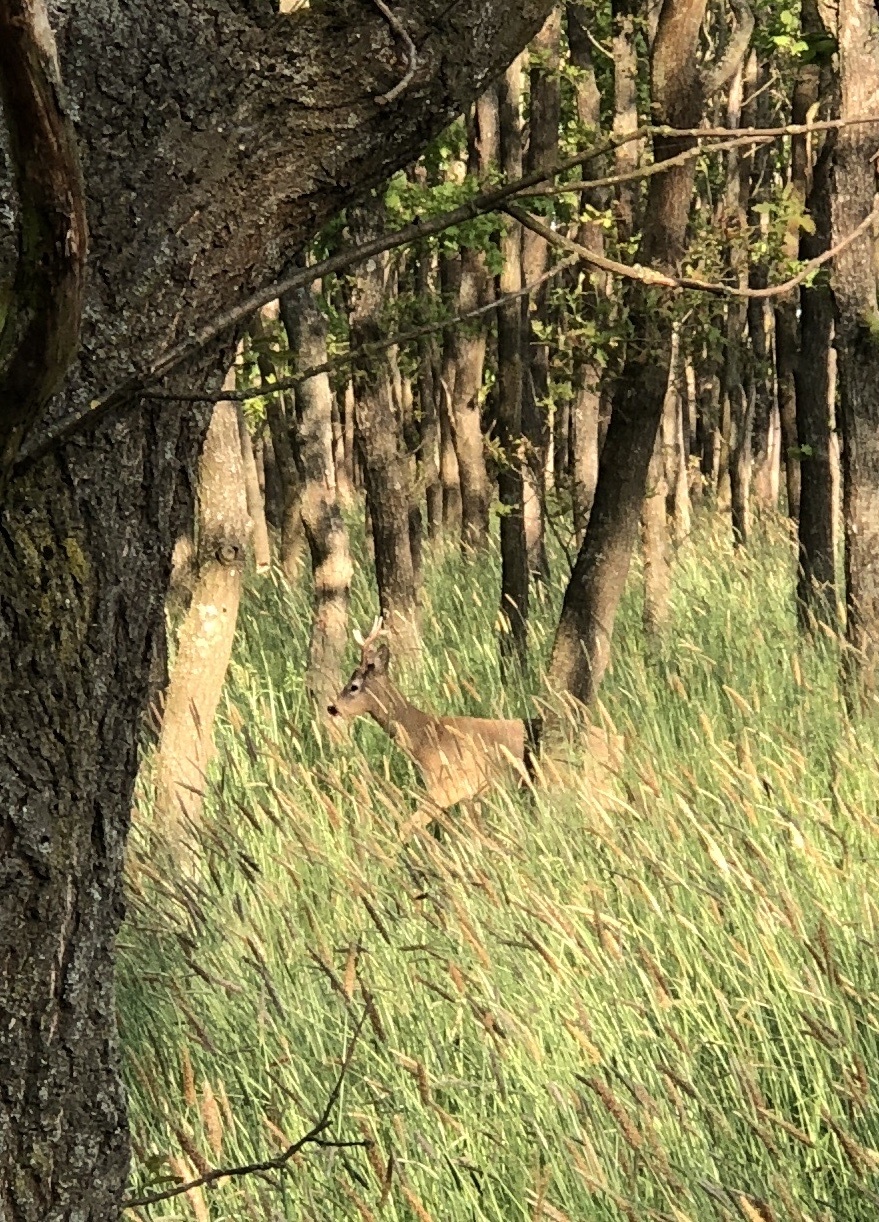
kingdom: Animalia
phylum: Chordata
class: Mammalia
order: Artiodactyla
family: Cervidae
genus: Capreolus
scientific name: Capreolus capreolus
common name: Western roe deer
